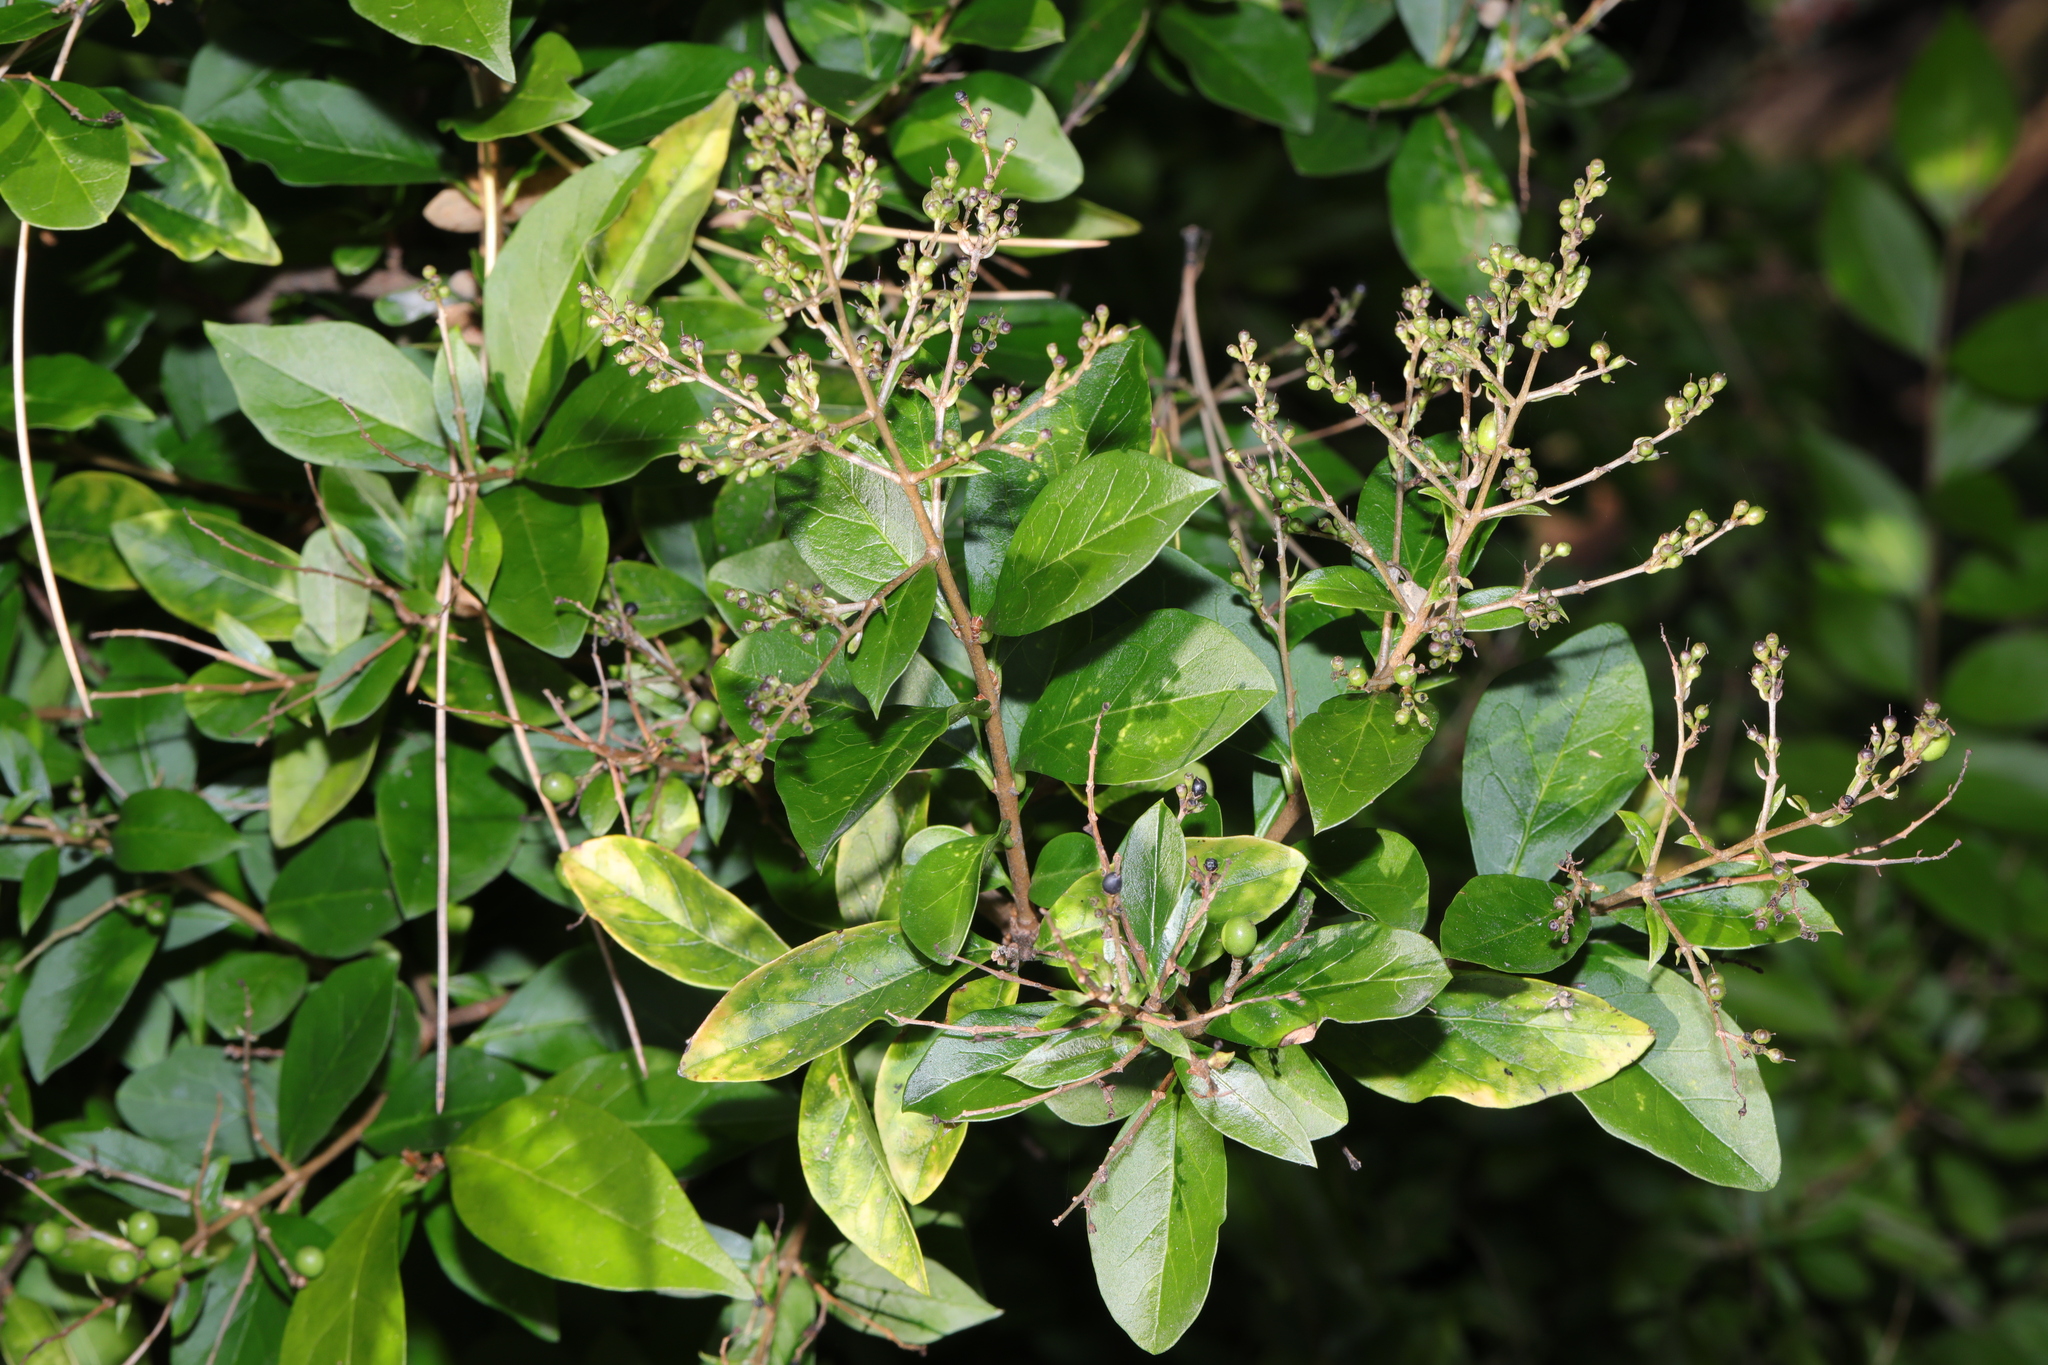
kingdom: Plantae
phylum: Tracheophyta
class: Magnoliopsida
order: Lamiales
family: Oleaceae
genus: Ligustrum
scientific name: Ligustrum ovalifolium
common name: California privet
